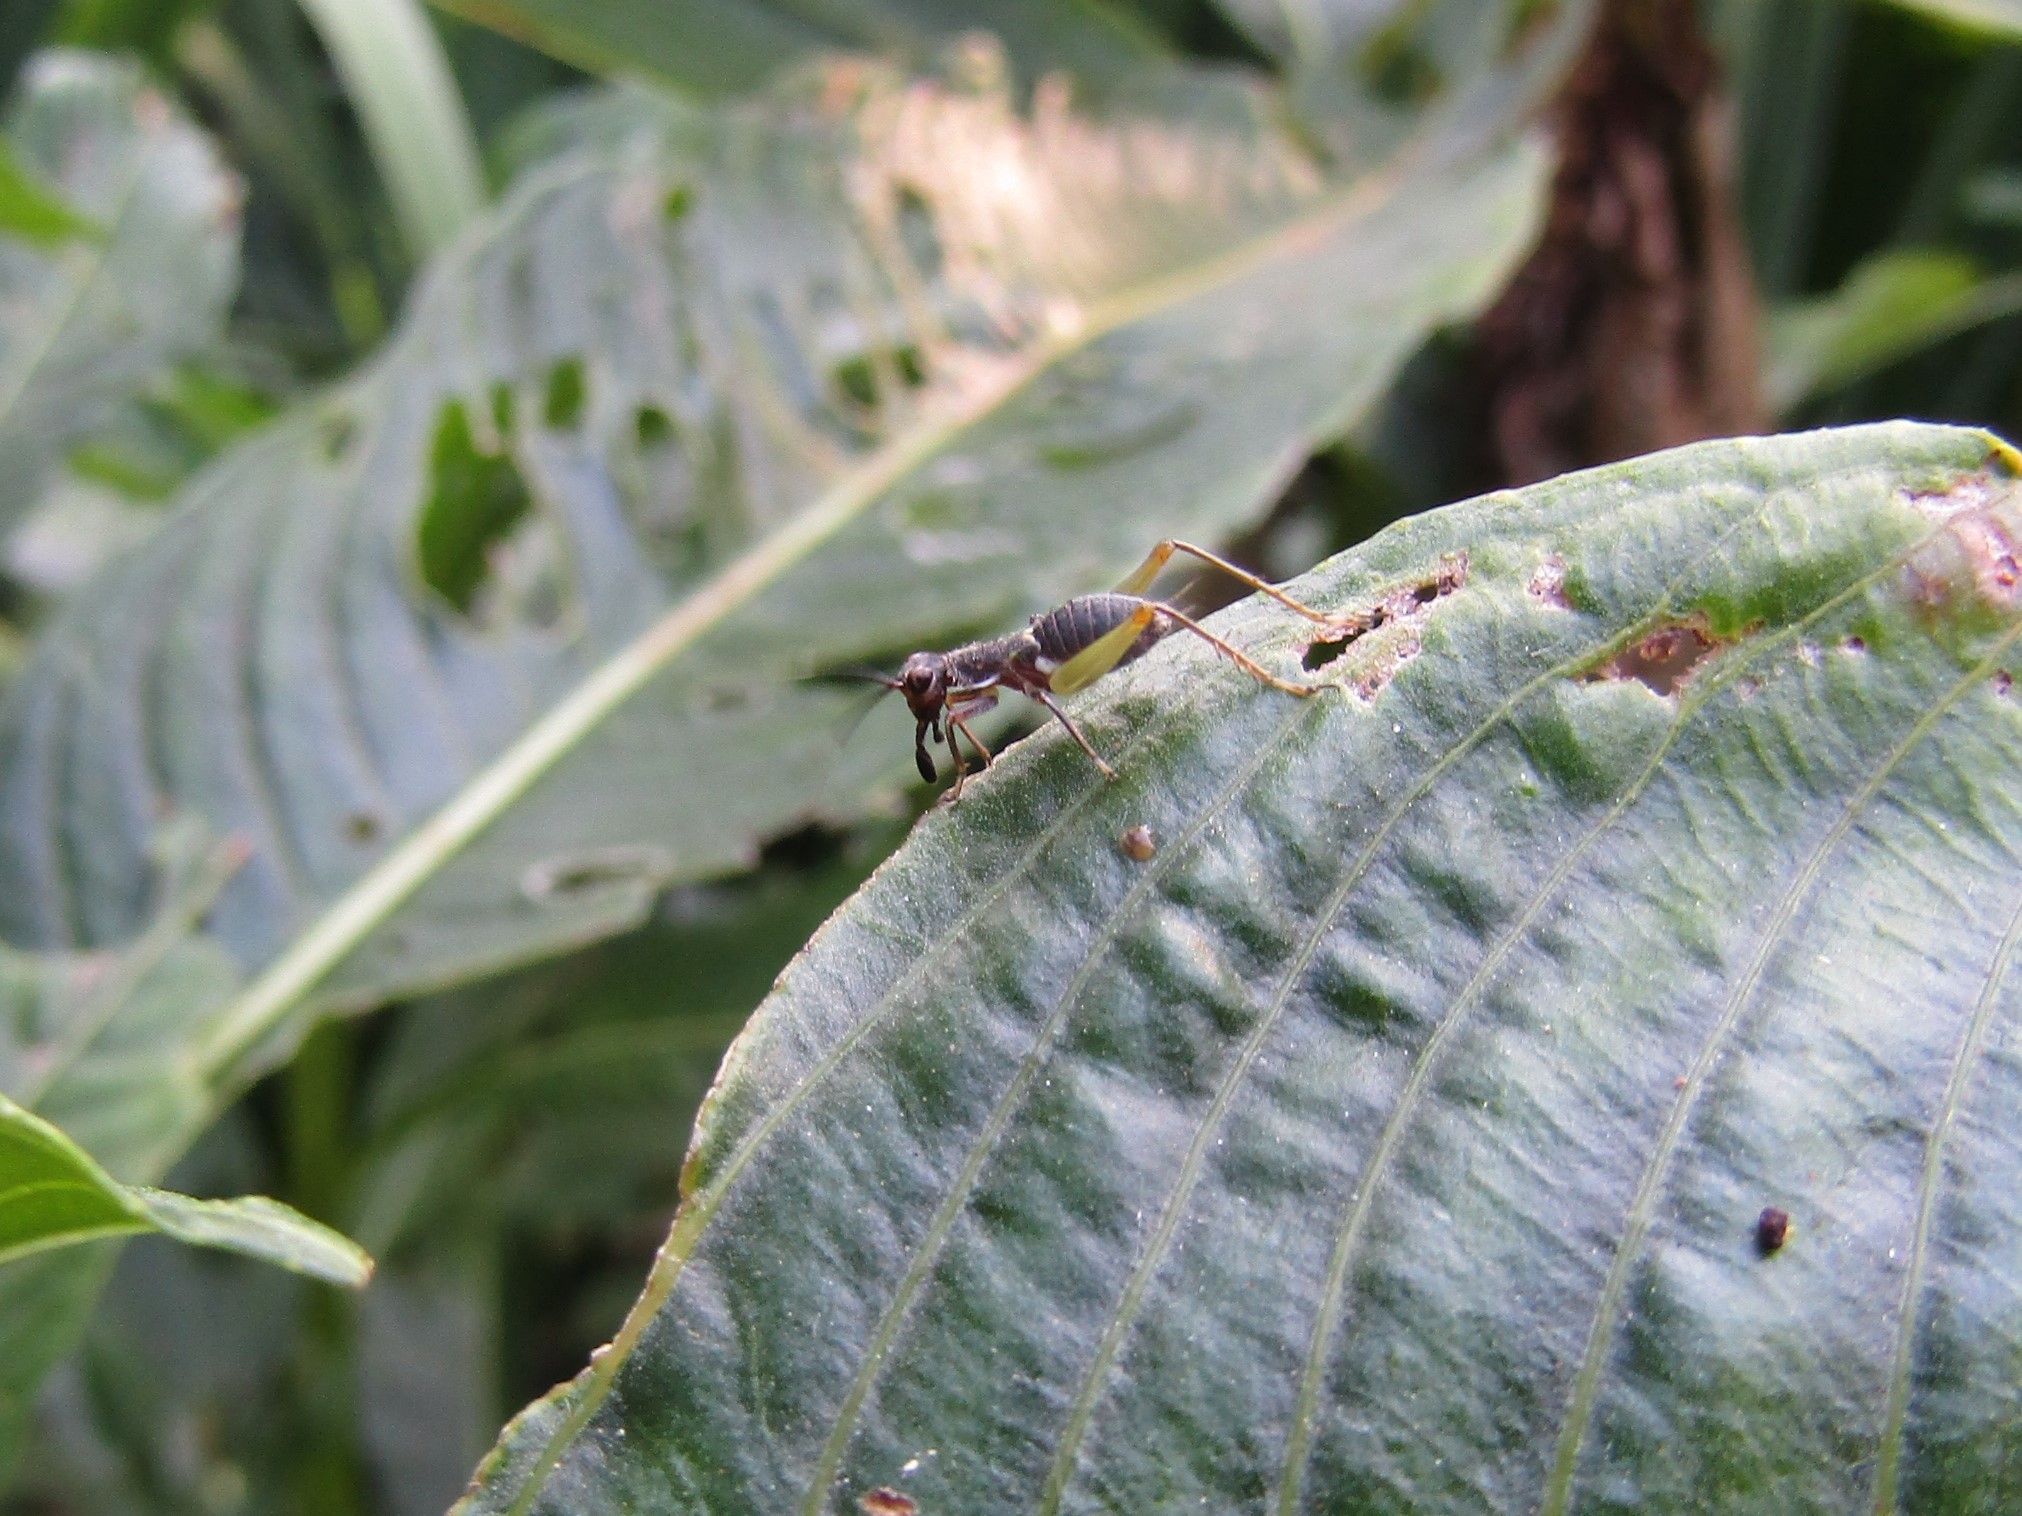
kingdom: Animalia
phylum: Arthropoda
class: Insecta
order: Orthoptera
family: Trigonidiidae
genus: Cranistus
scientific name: Cranistus colliurides
